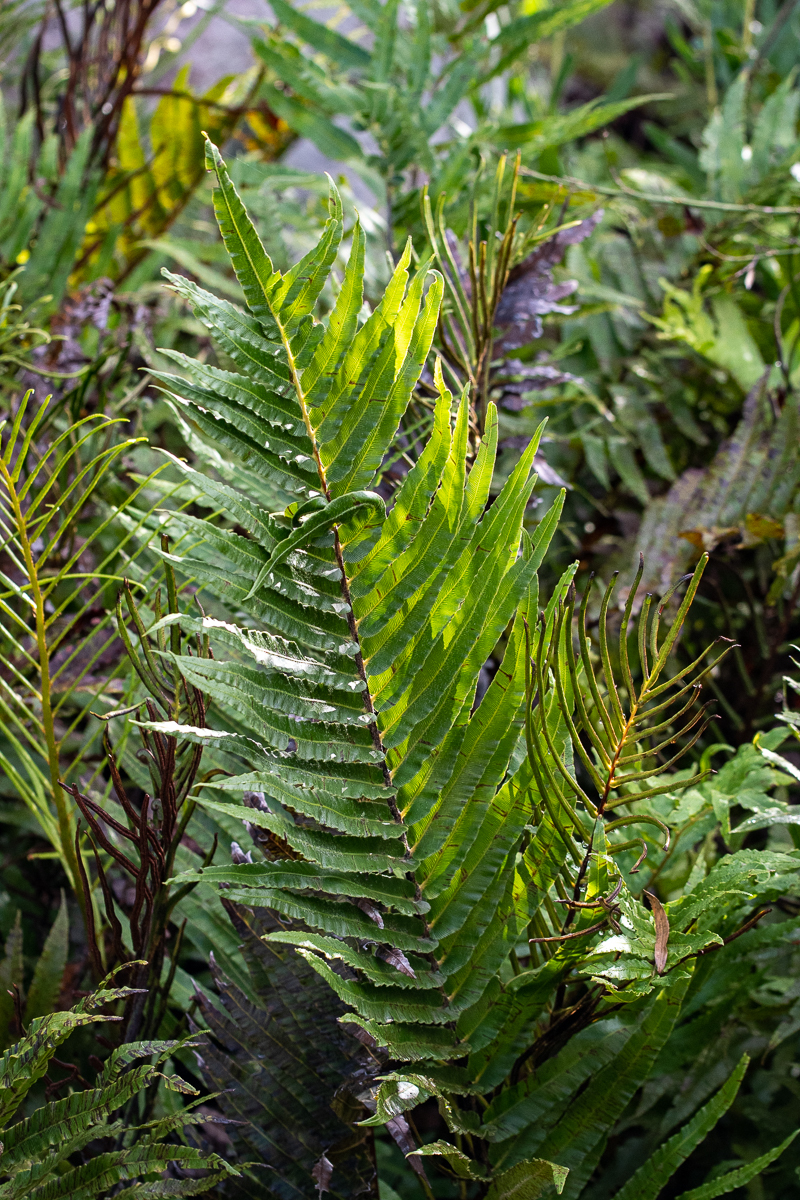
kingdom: Plantae
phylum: Tracheophyta
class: Polypodiopsida
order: Polypodiales
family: Blechnaceae
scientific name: Blechnaceae
